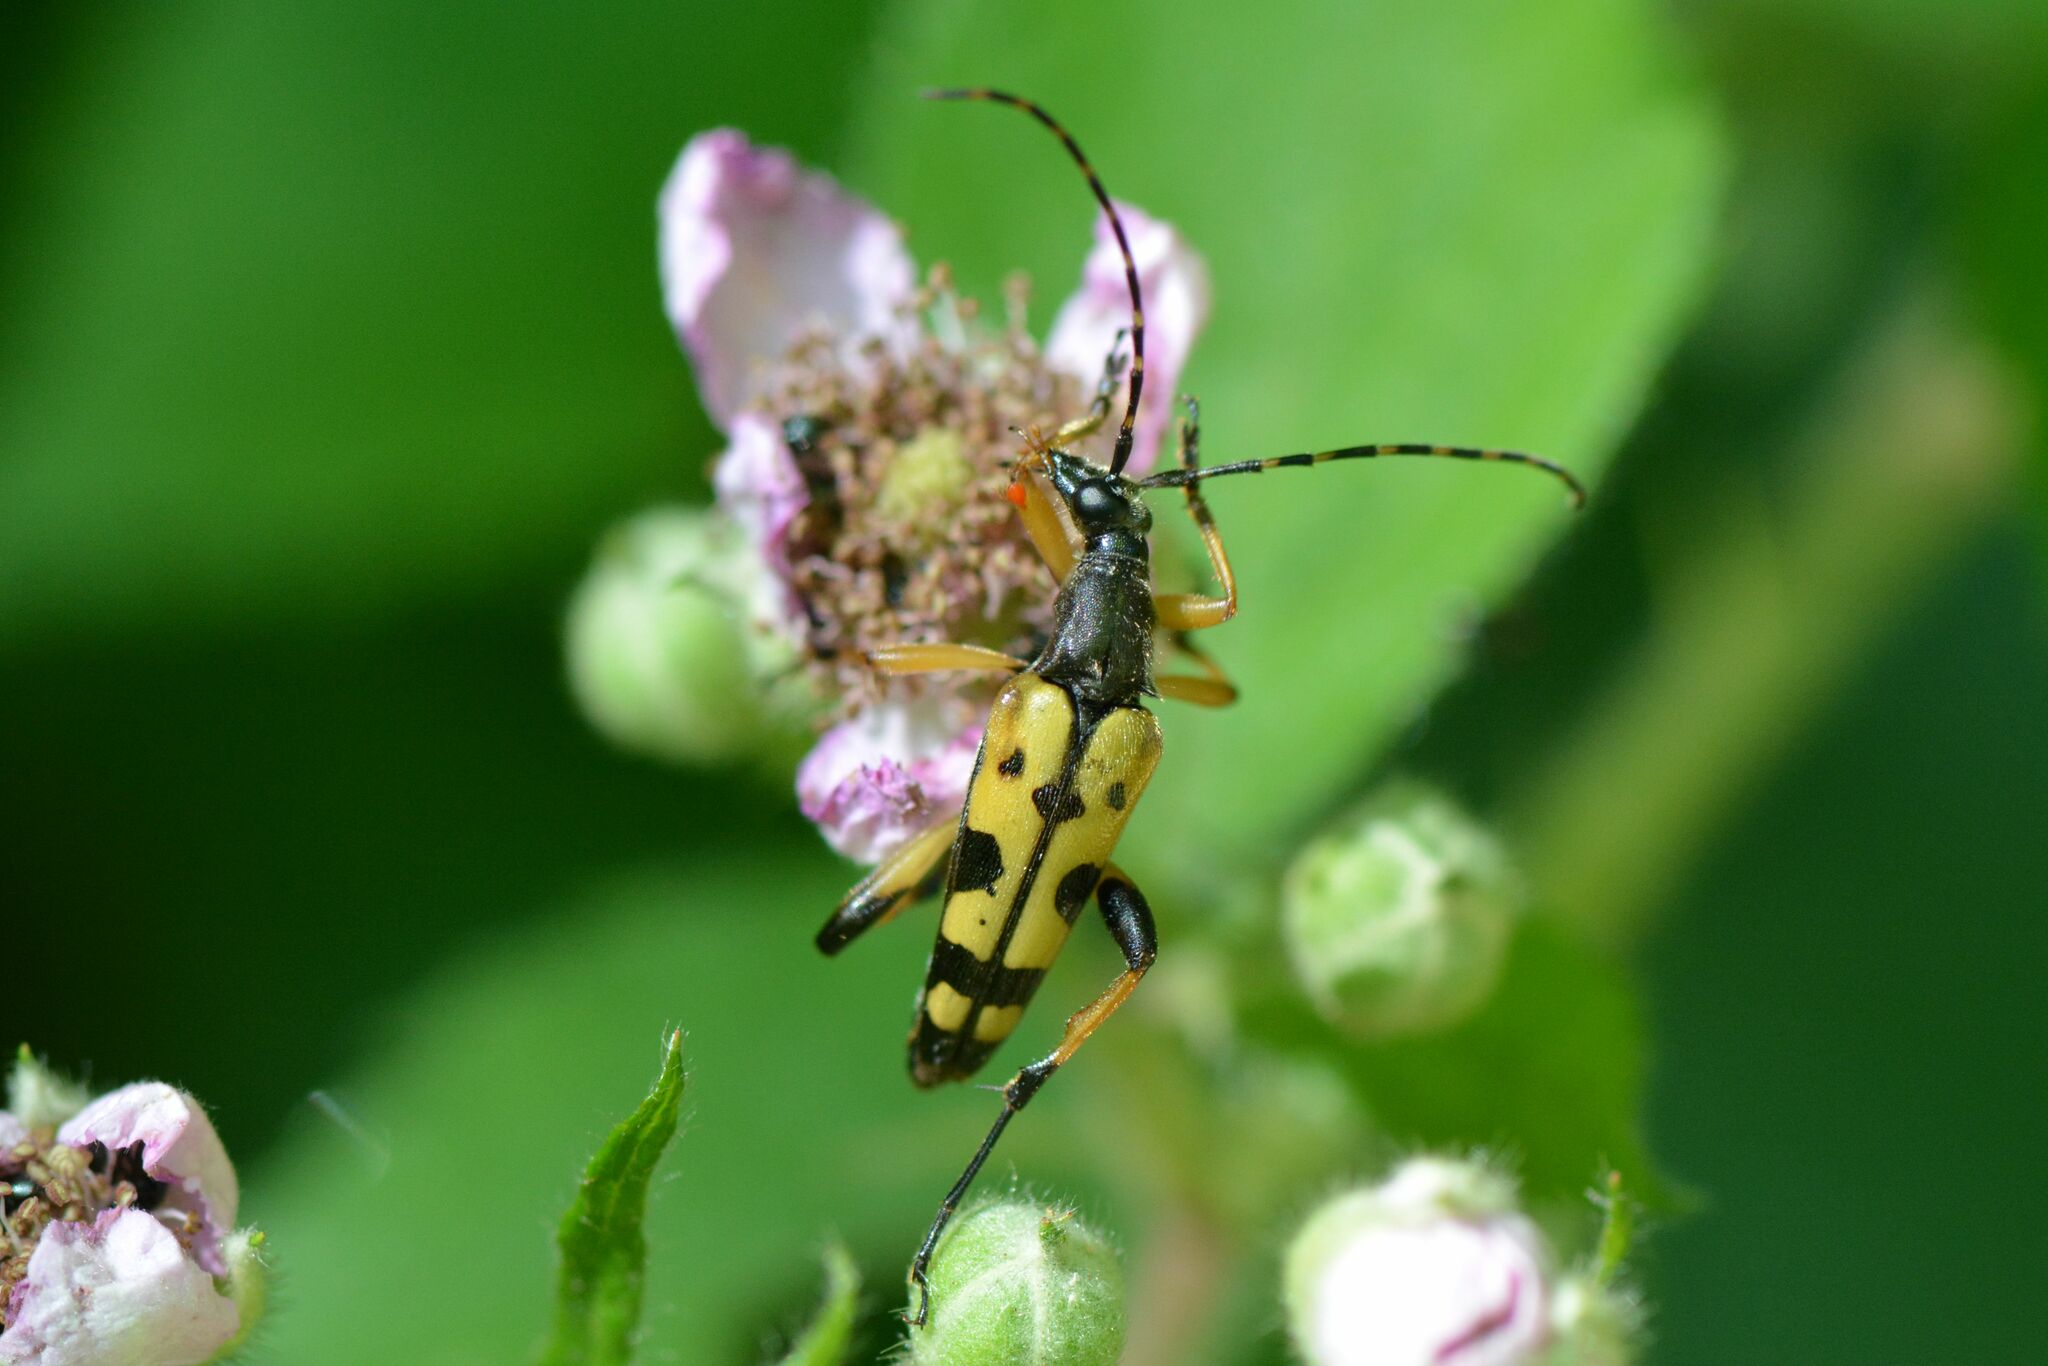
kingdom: Animalia
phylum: Arthropoda
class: Insecta
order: Coleoptera
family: Cerambycidae
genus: Rutpela
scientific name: Rutpela maculata
